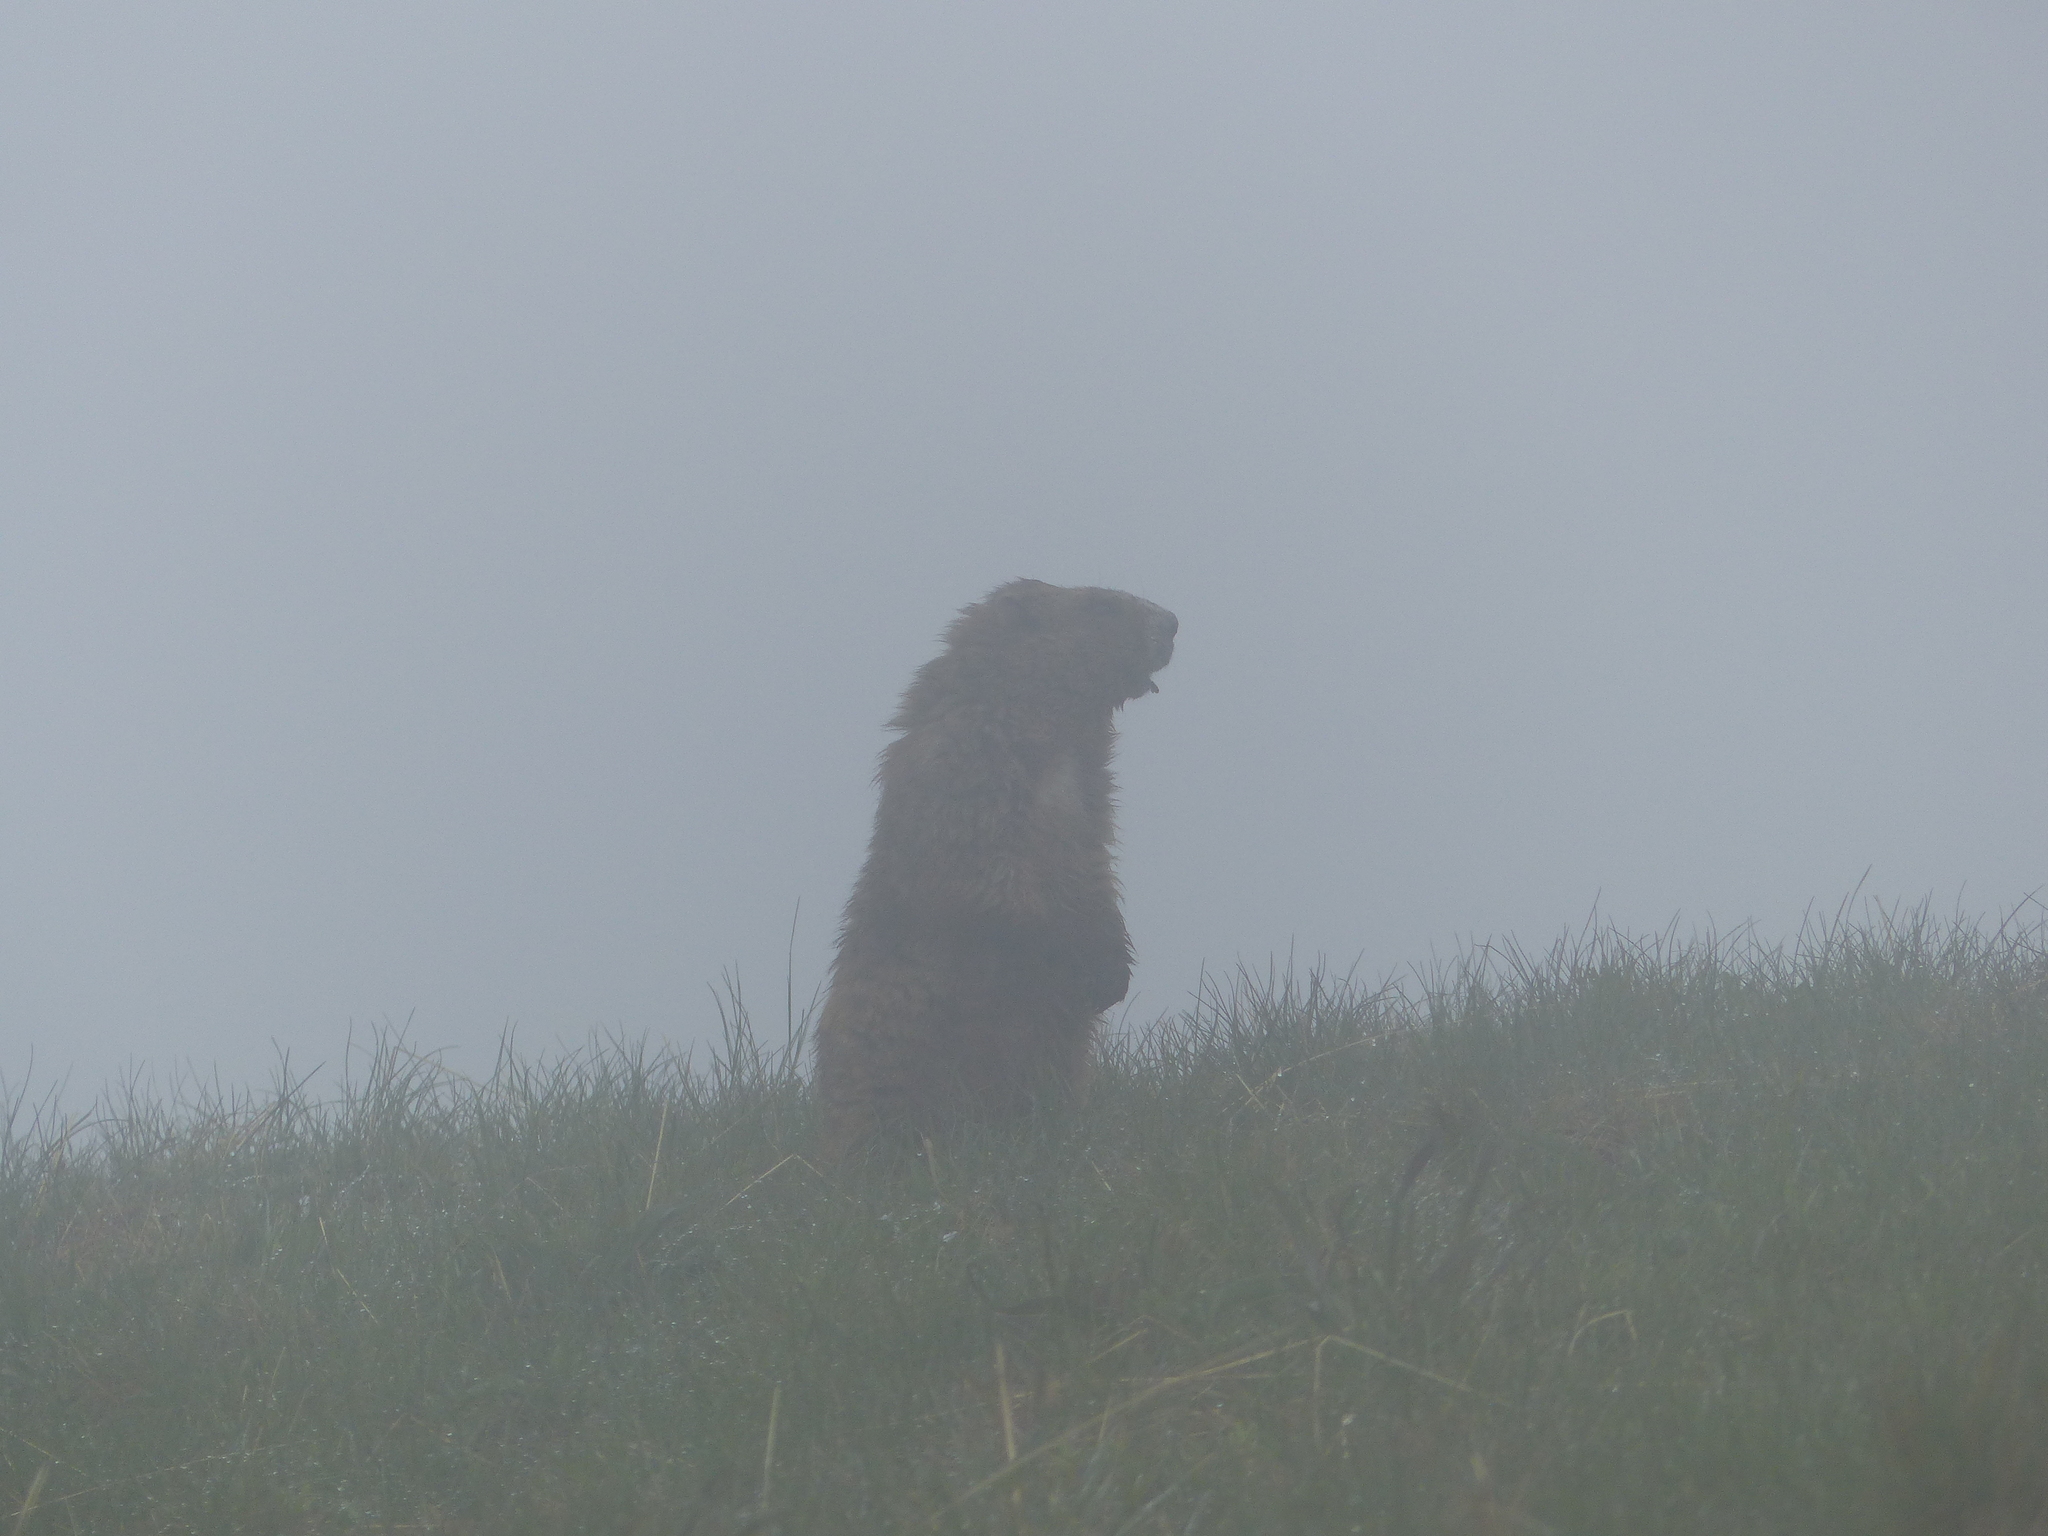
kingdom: Animalia
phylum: Chordata
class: Mammalia
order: Rodentia
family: Sciuridae
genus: Marmota
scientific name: Marmota olympus
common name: Olympic marmot
